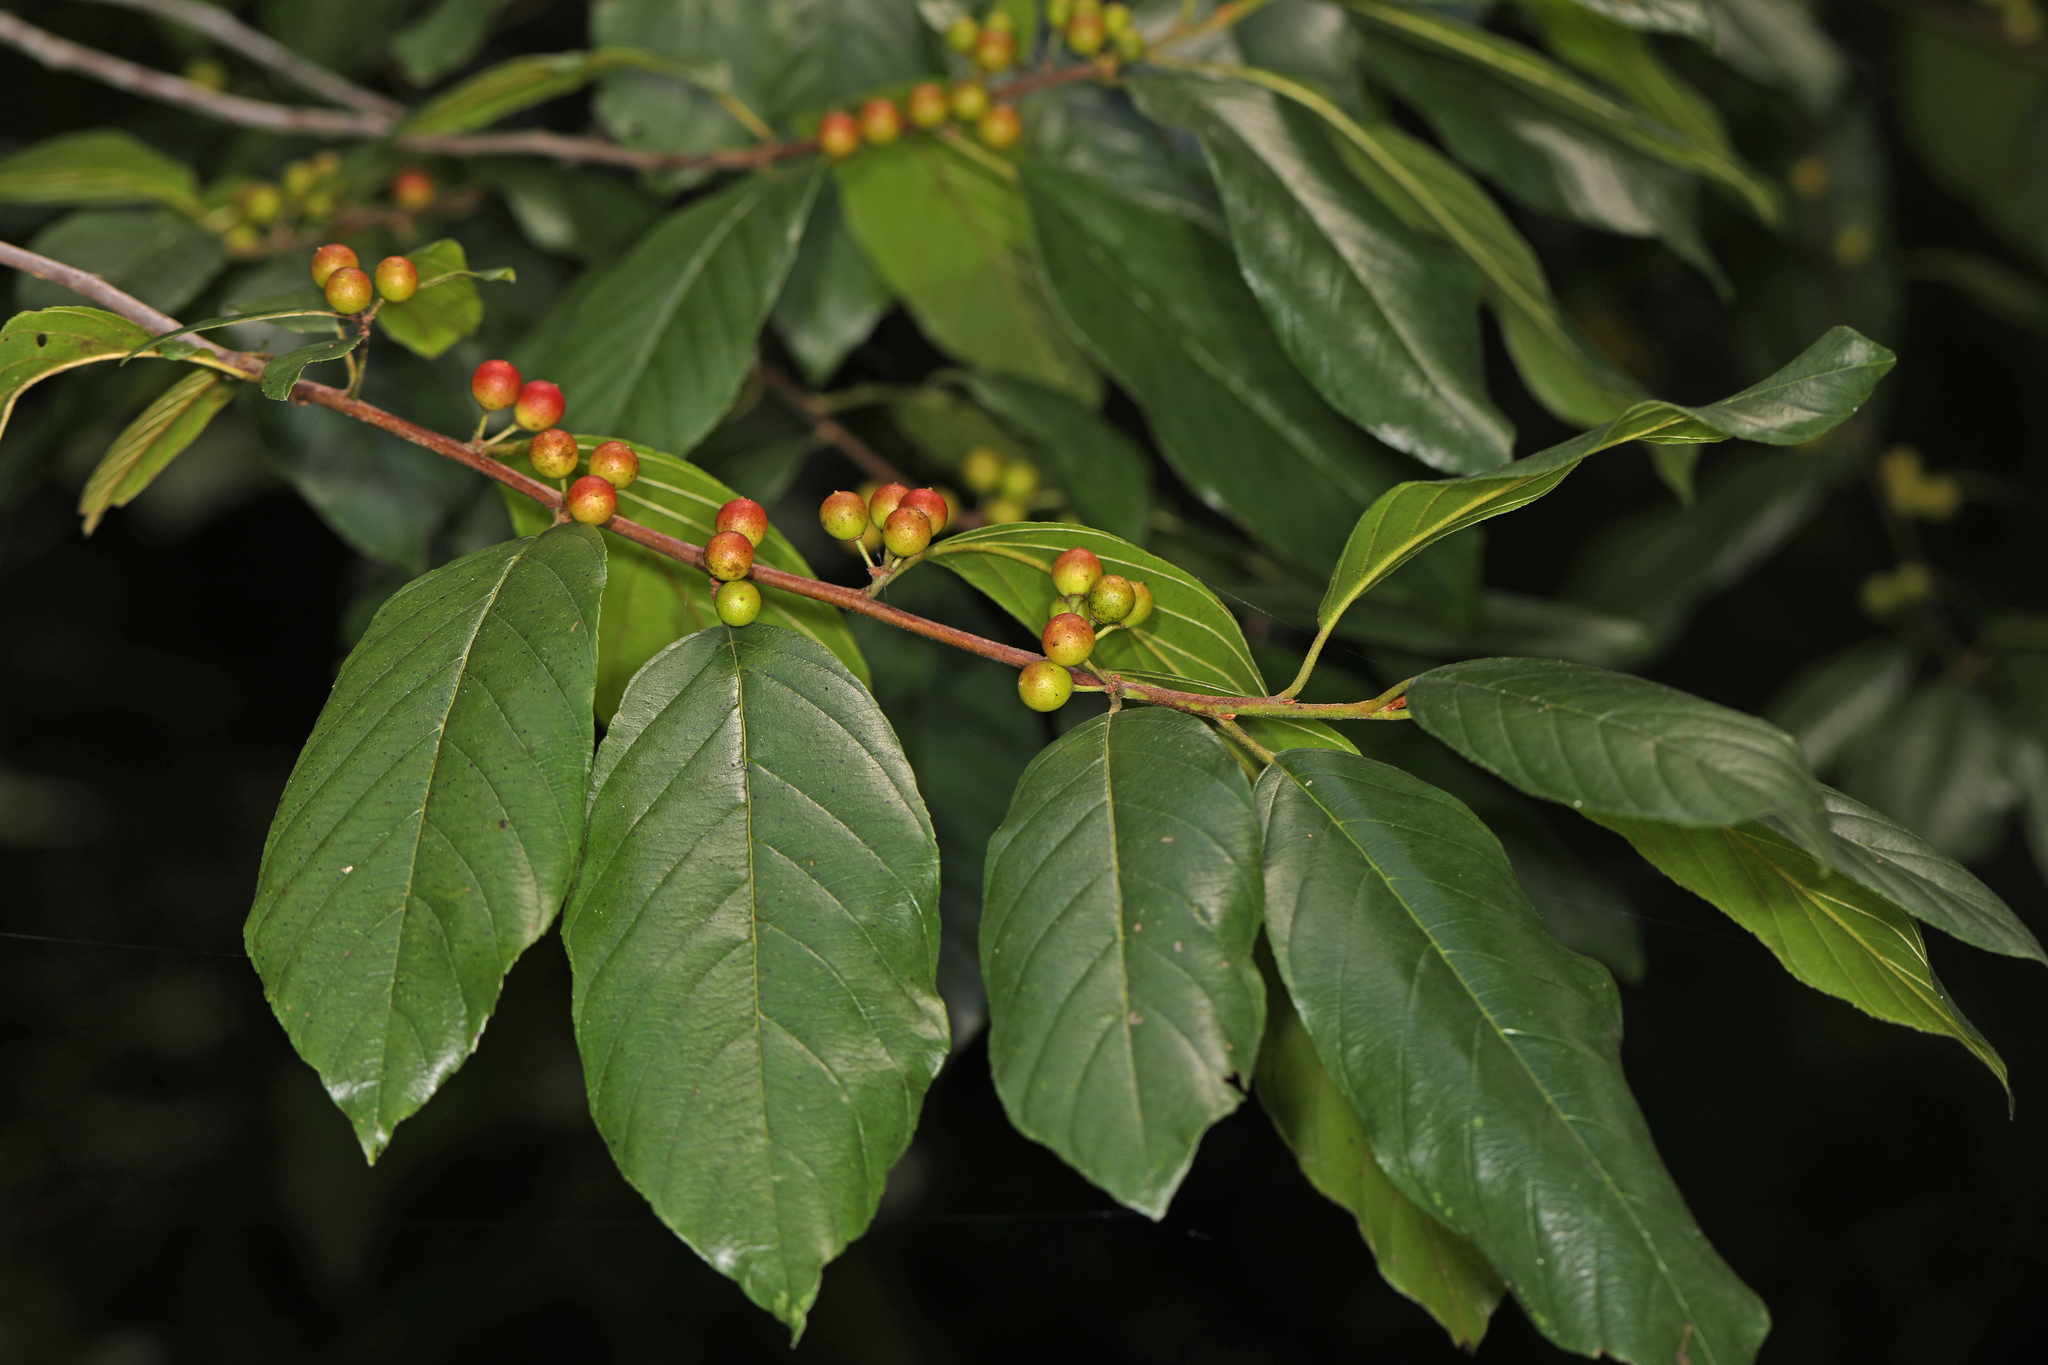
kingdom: Plantae
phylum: Tracheophyta
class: Magnoliopsida
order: Rosales
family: Rhamnaceae
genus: Frangula
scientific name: Frangula caroliniana
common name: Carolina buckthorn
